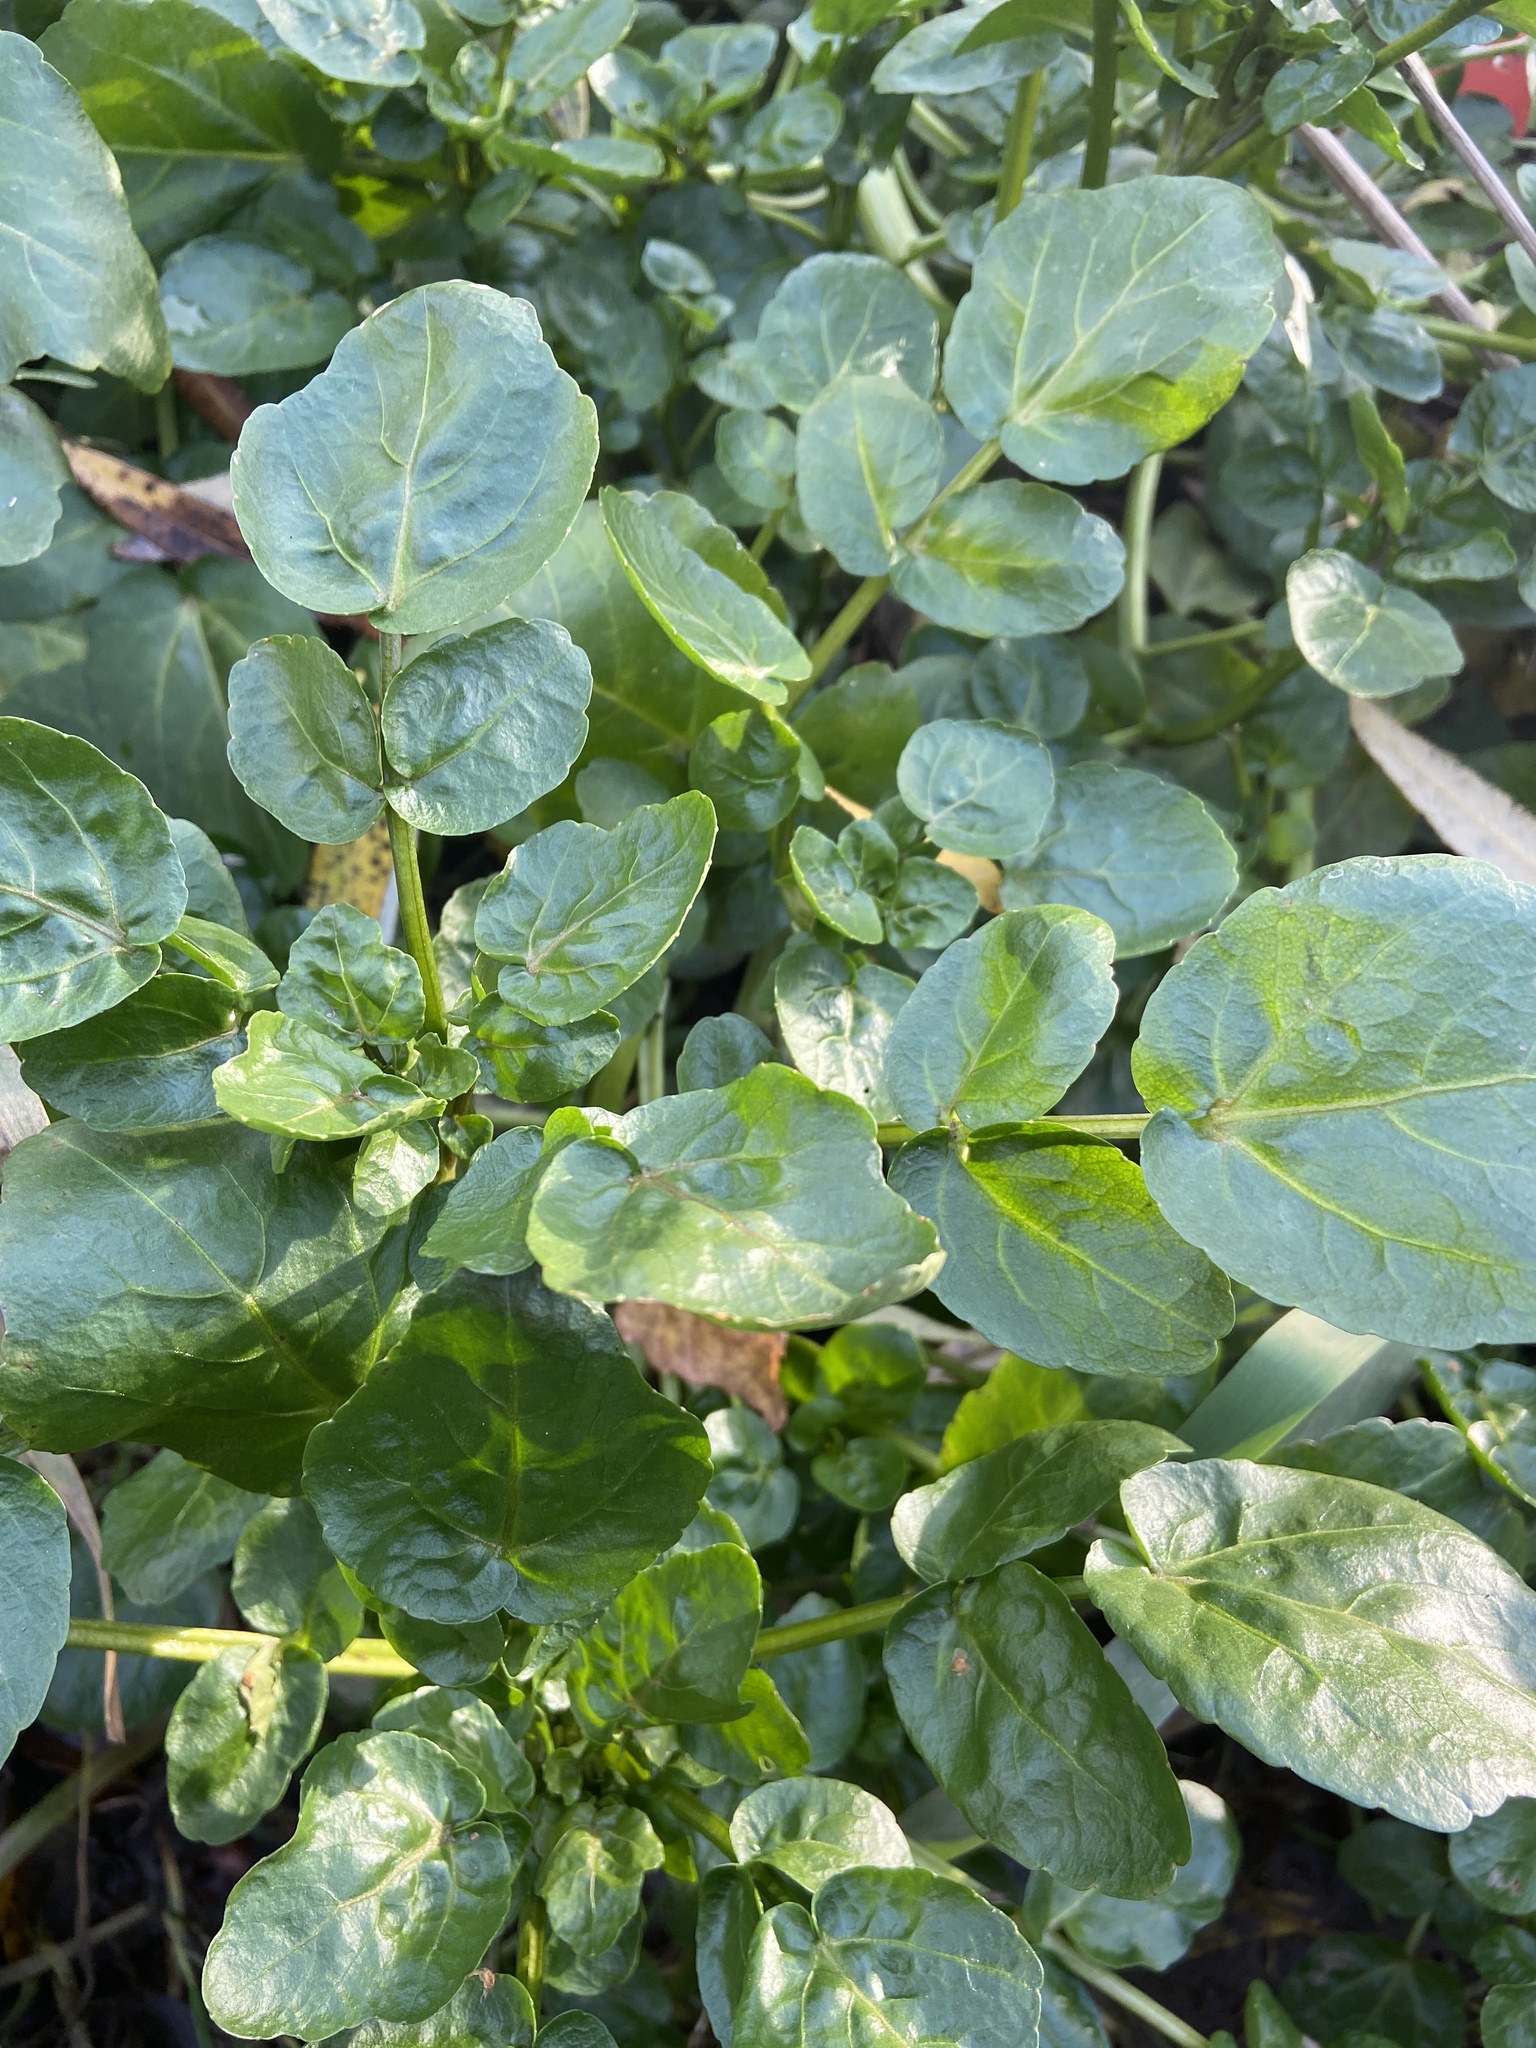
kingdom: Plantae
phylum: Tracheophyta
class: Magnoliopsida
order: Brassicales
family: Brassicaceae
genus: Nasturtium
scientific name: Nasturtium officinale
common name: Watercress
